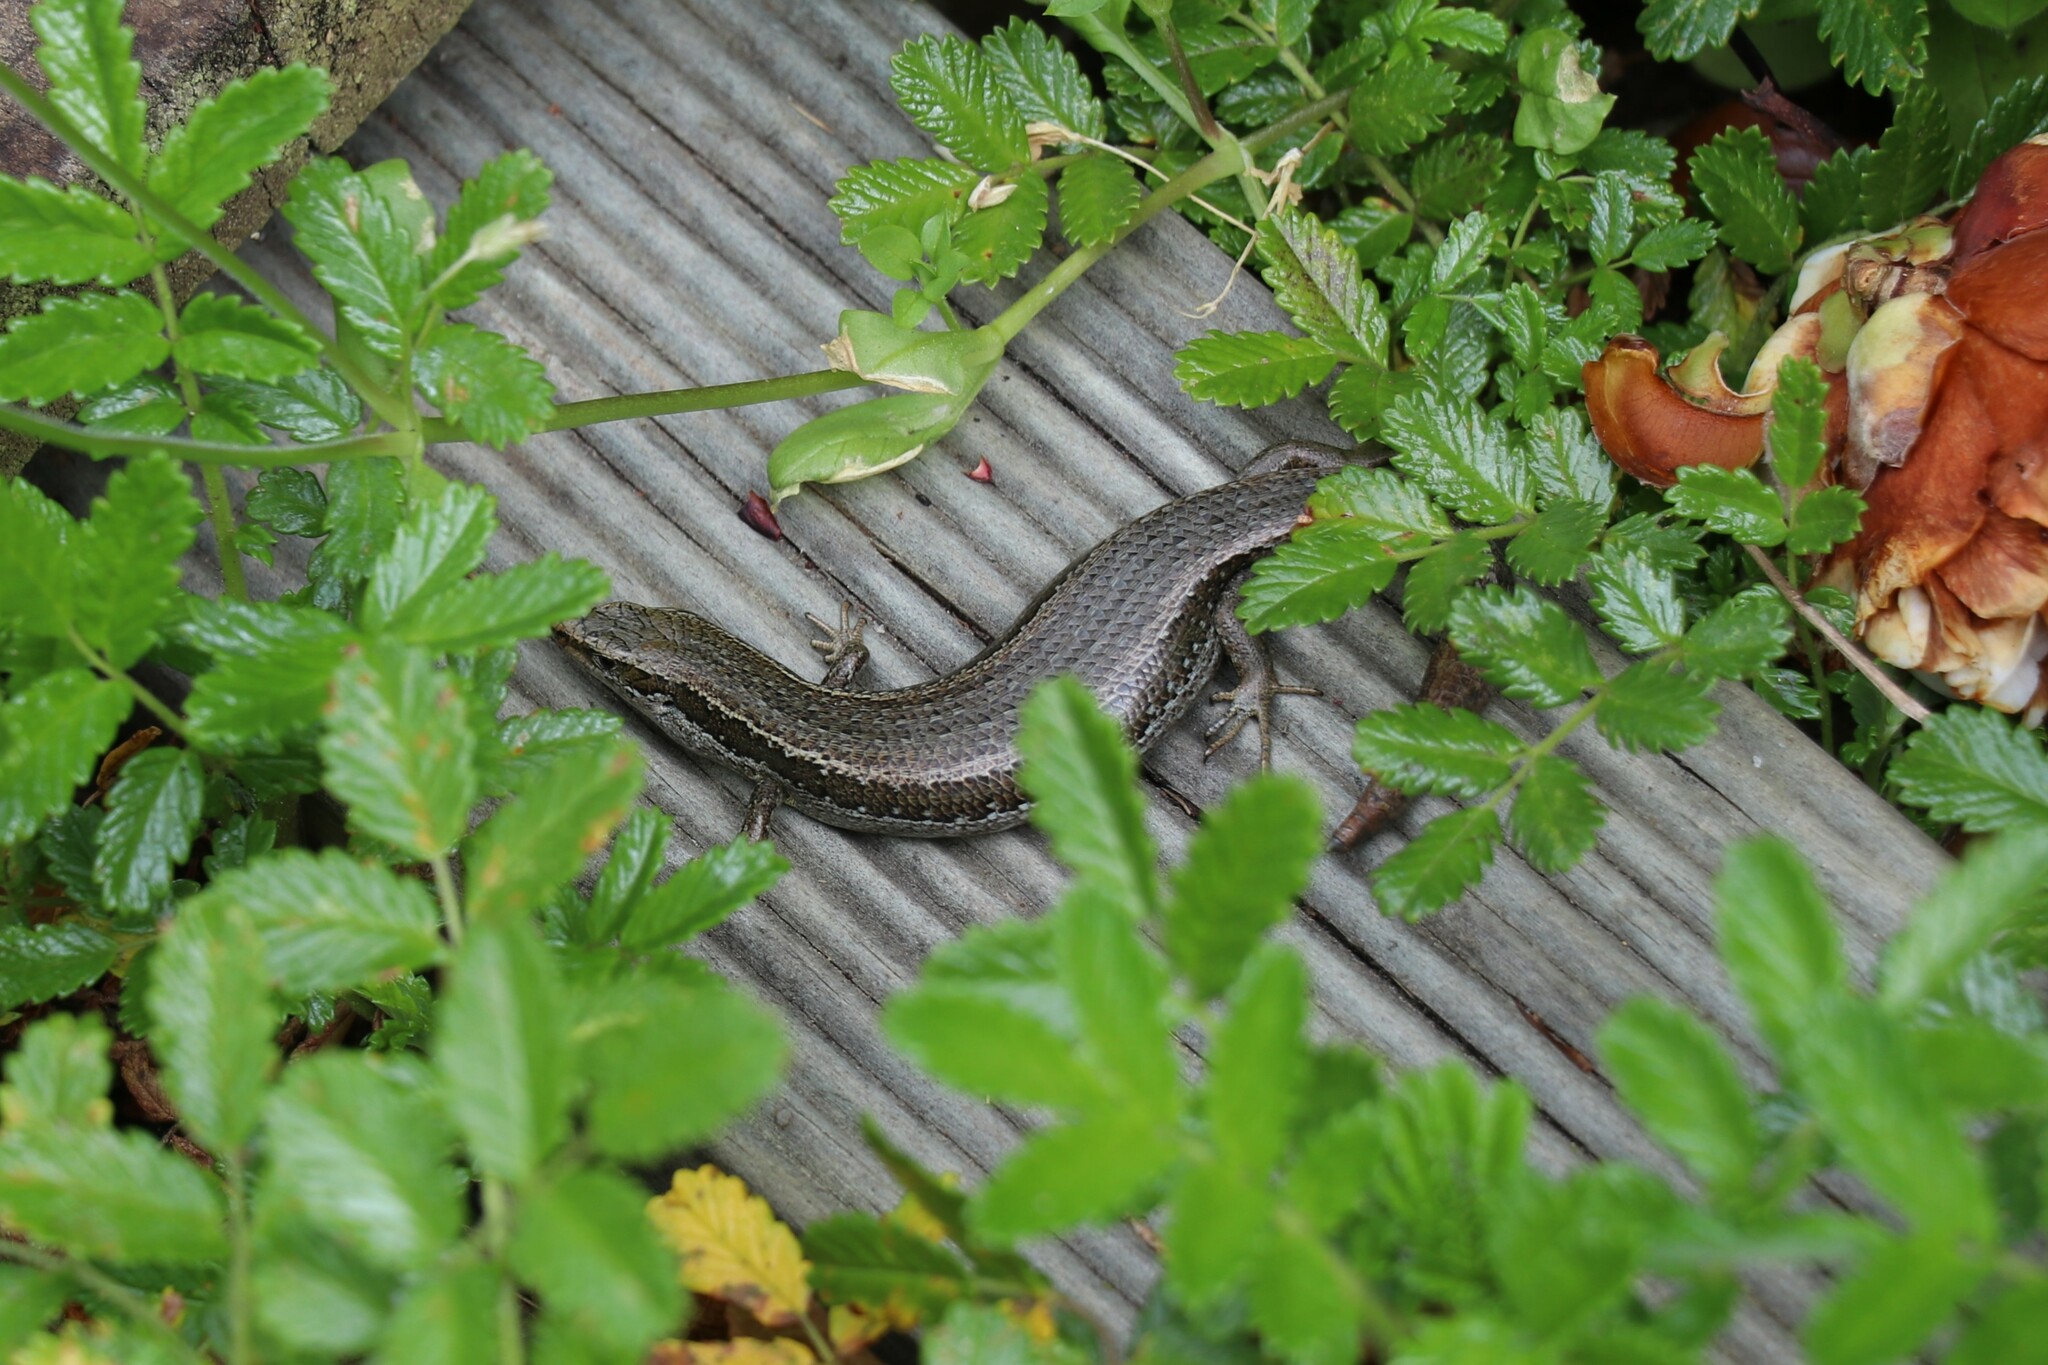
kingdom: Animalia
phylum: Chordata
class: Squamata
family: Scincidae
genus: Oligosoma
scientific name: Oligosoma polychroma
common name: Common new zealand skink
